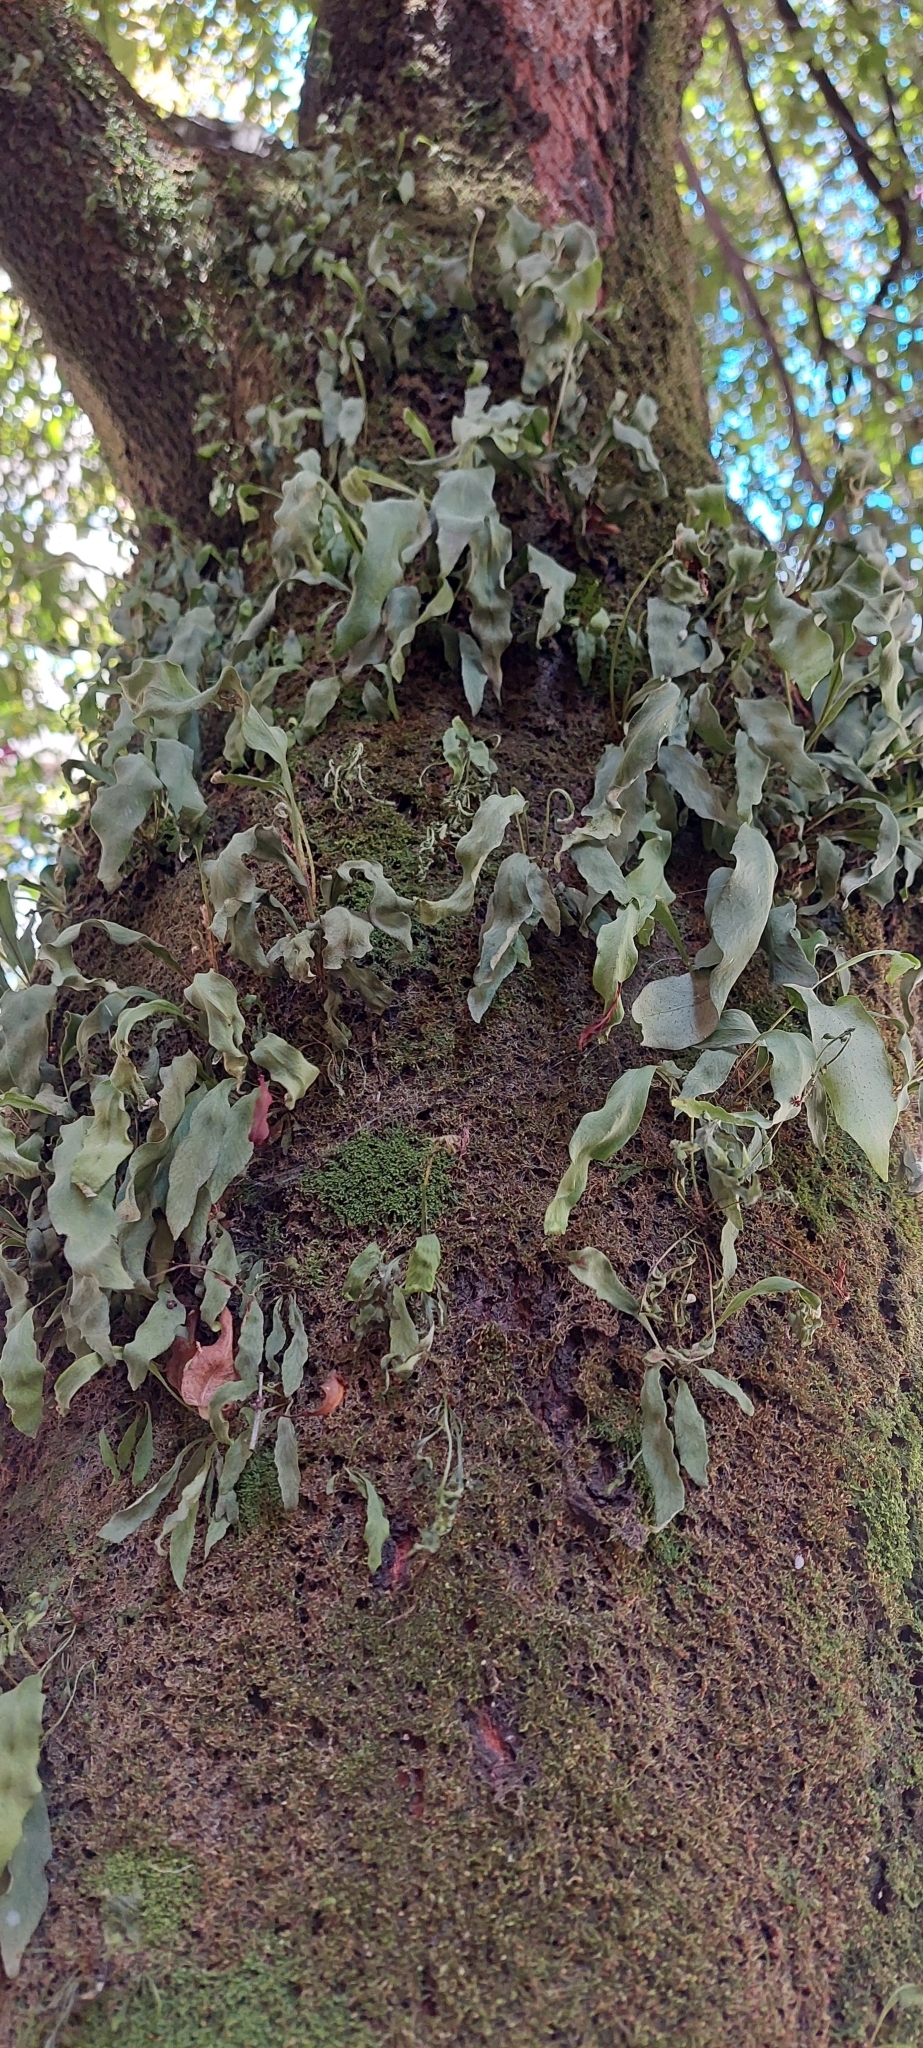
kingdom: Plantae
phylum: Tracheophyta
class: Polypodiopsida
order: Polypodiales
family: Polypodiaceae
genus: Pleopeltis
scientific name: Pleopeltis macrocarpa
